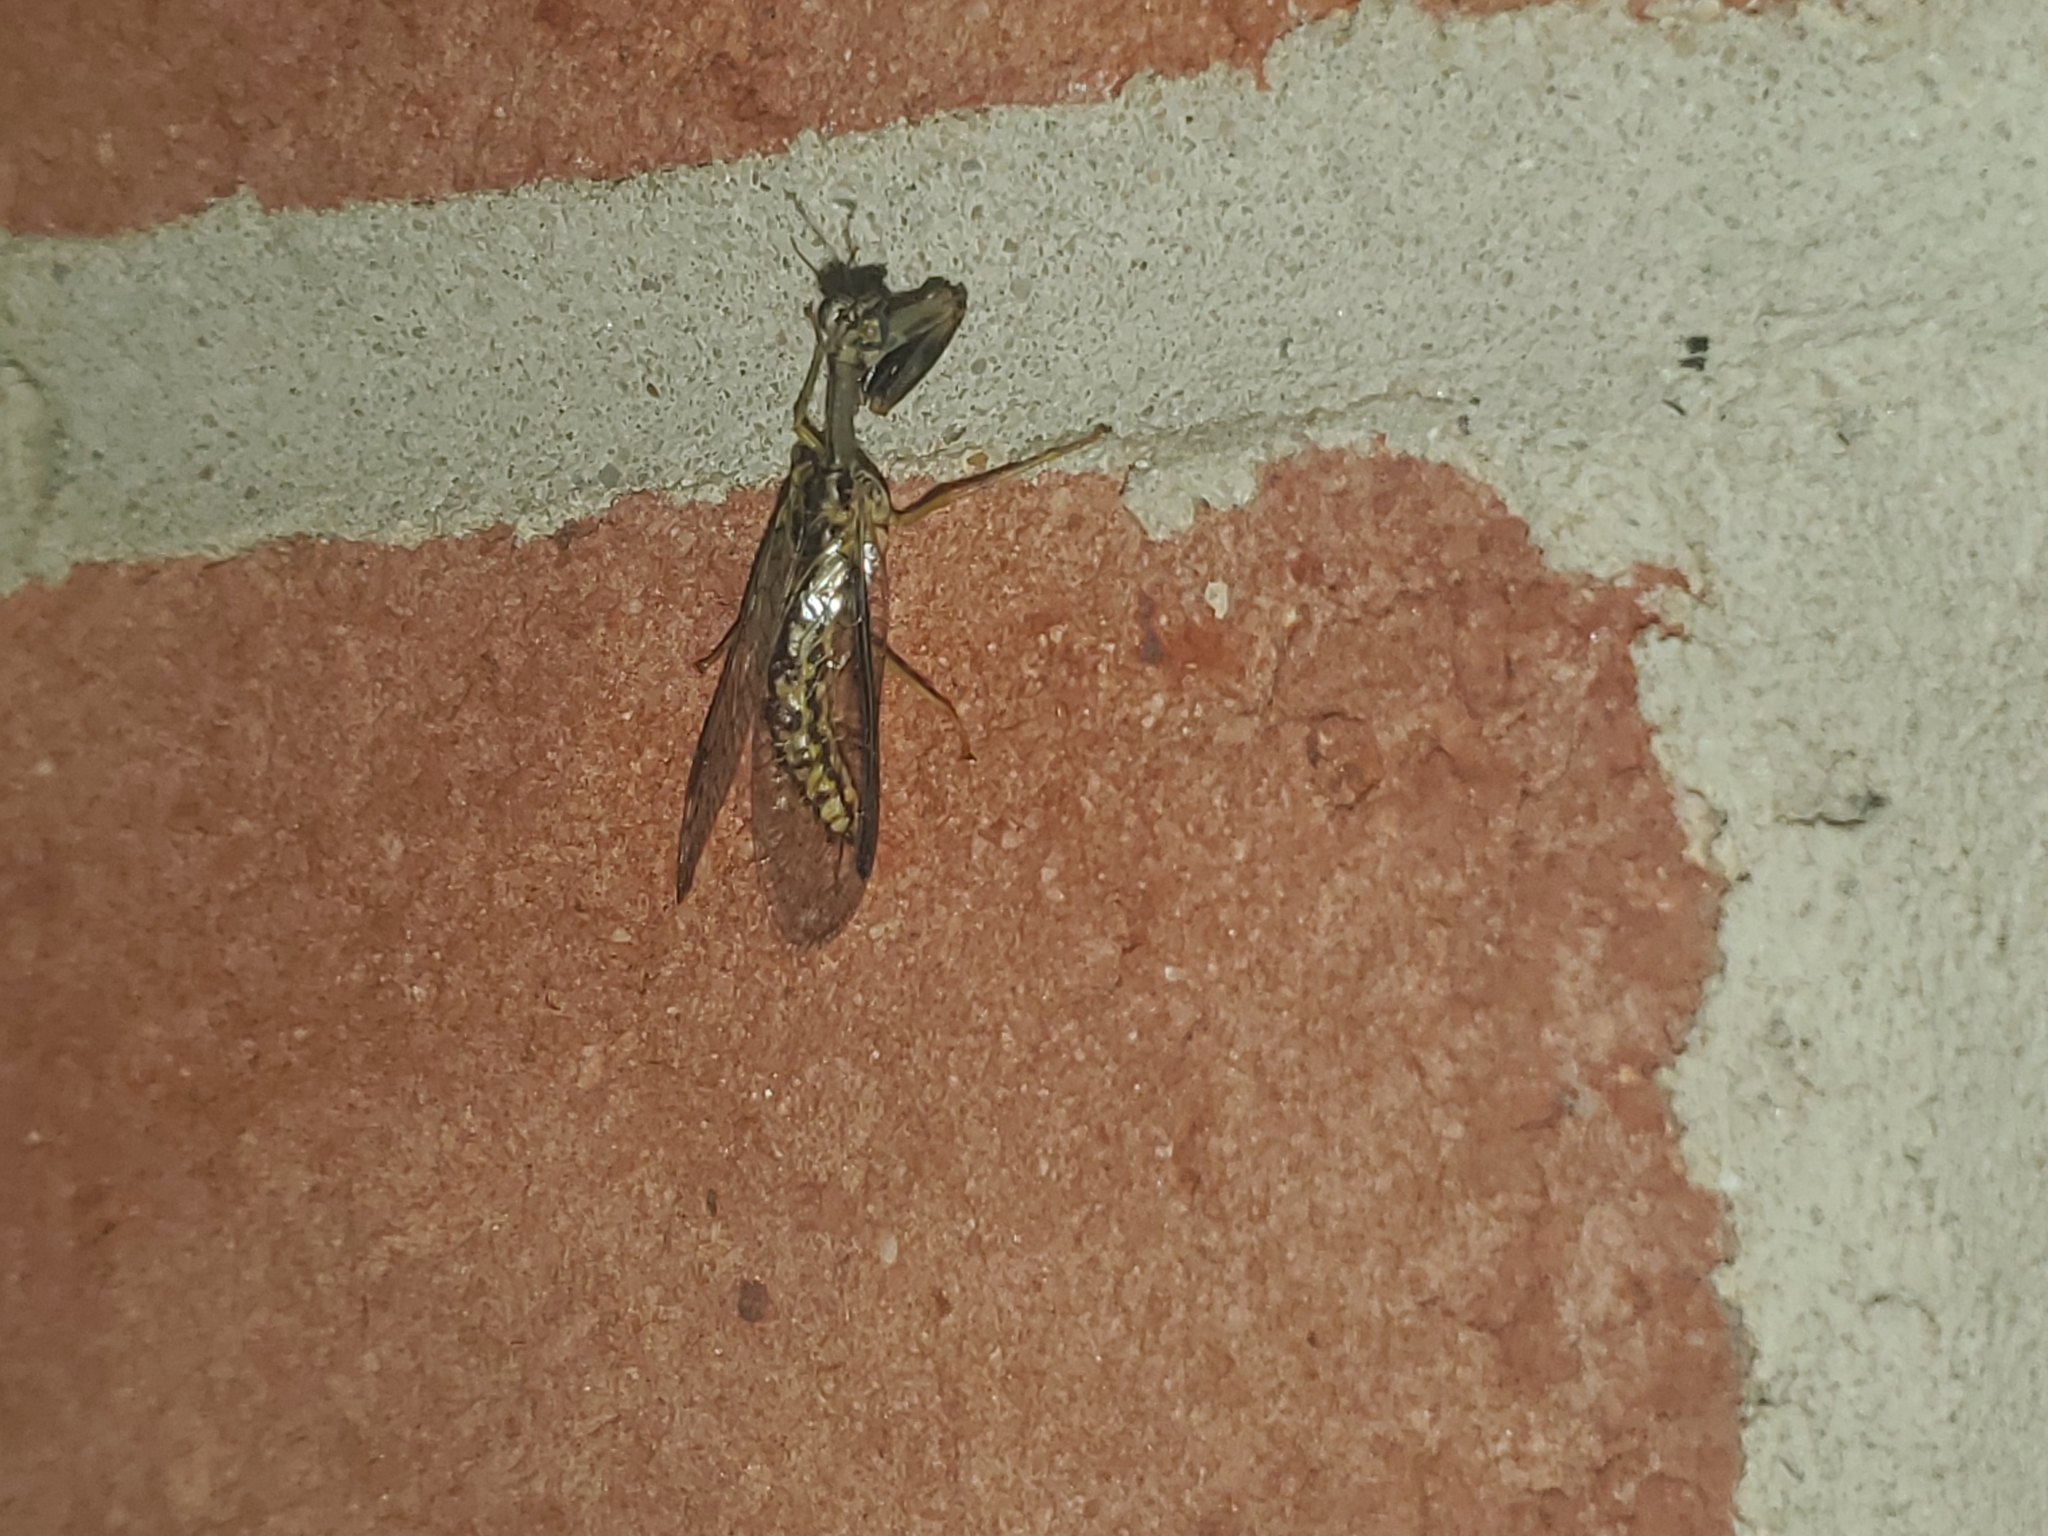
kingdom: Animalia
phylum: Arthropoda
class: Insecta
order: Neuroptera
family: Mantispidae
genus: Dicromantispa
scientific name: Dicromantispa sayi
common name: Say's mantidfly
